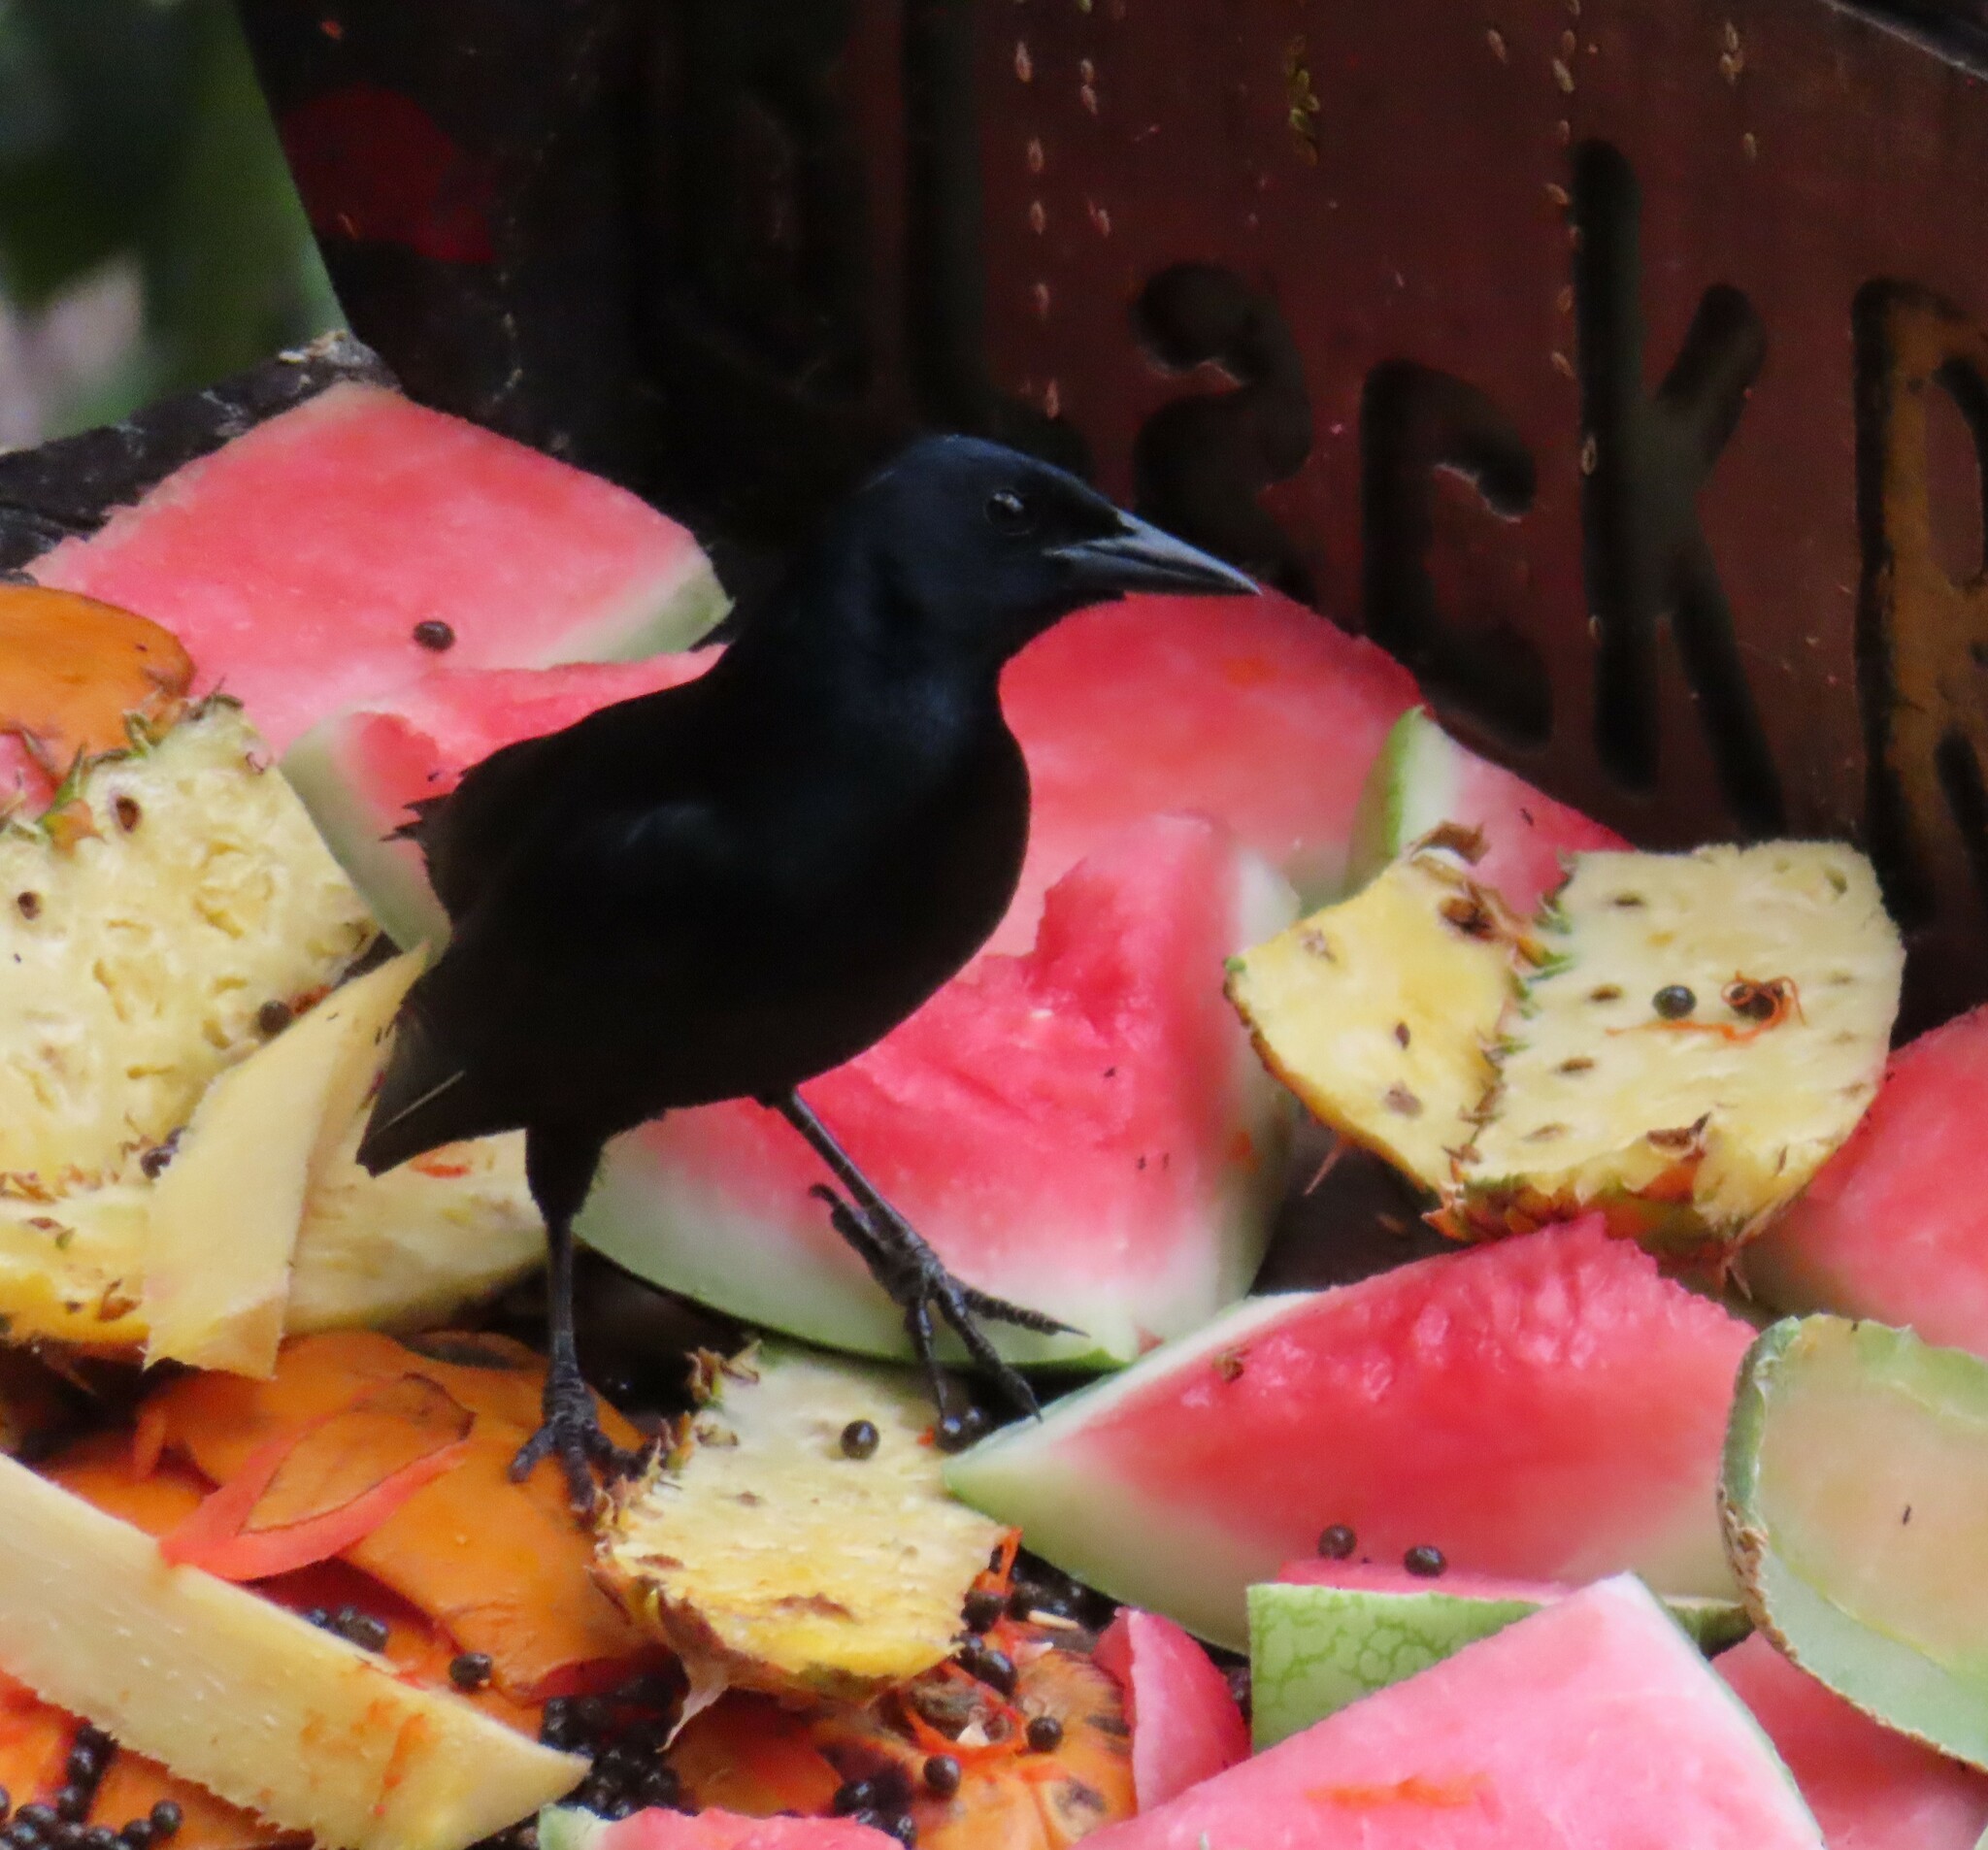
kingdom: Animalia
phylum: Chordata
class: Aves
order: Passeriformes
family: Icteridae
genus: Dives
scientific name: Dives dives
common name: Melodious blackbird
